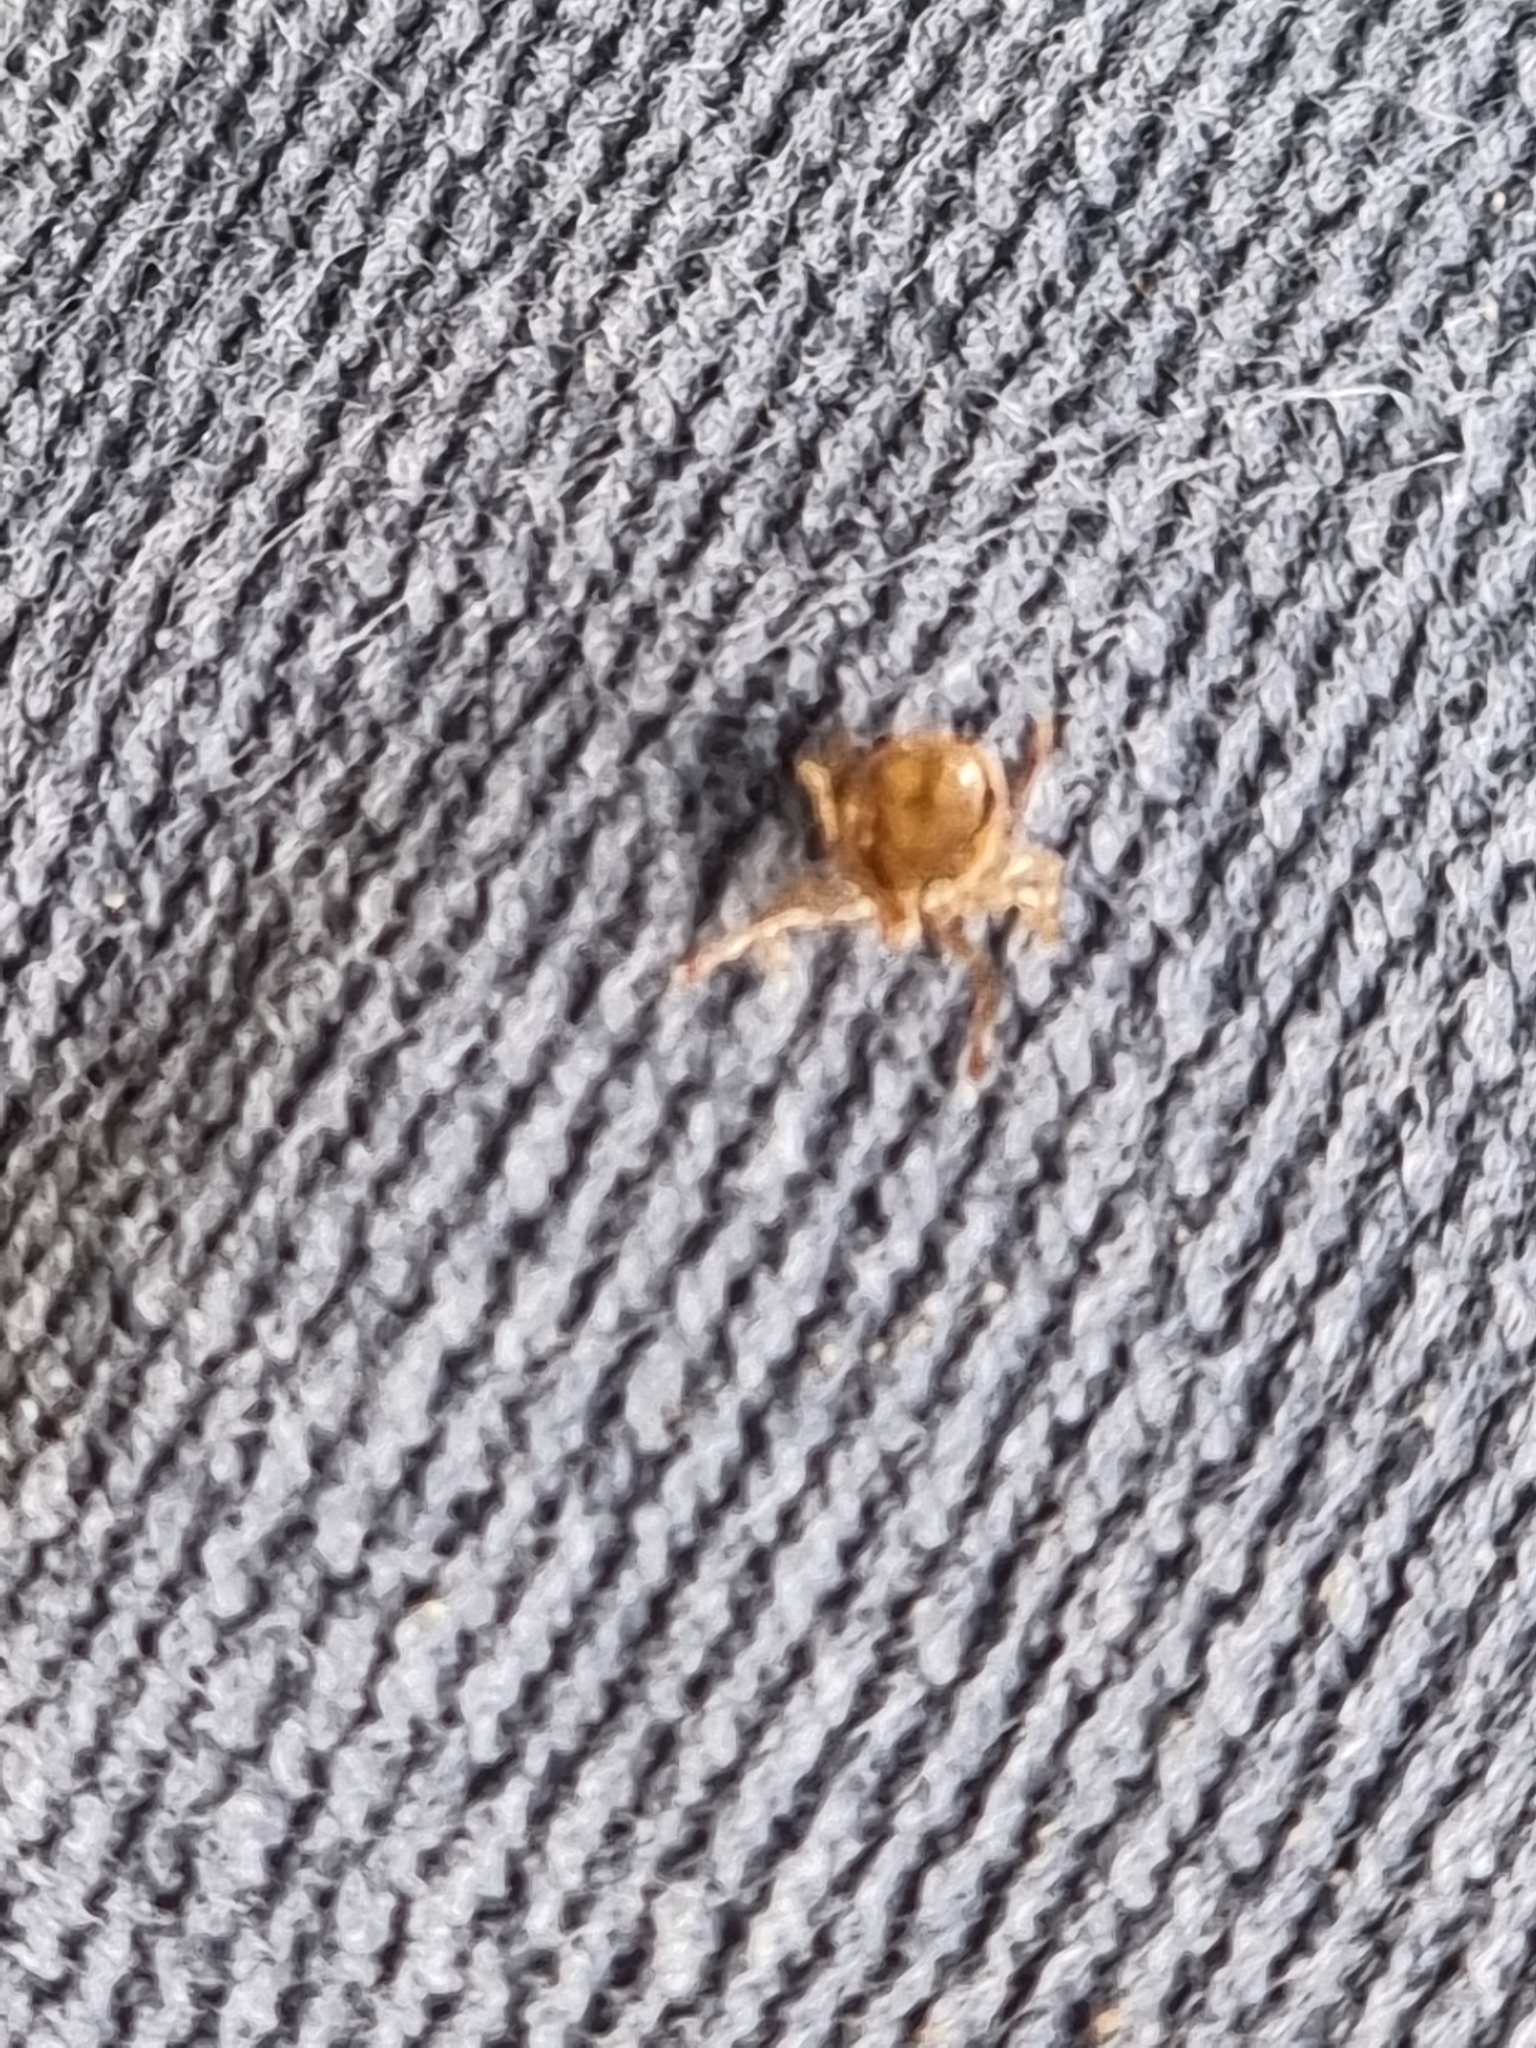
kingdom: Animalia
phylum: Arthropoda
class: Arachnida
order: Ixodida
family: Ixodidae
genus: Ixodes
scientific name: Ixodes holocyclus
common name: Australian paralysis tick
